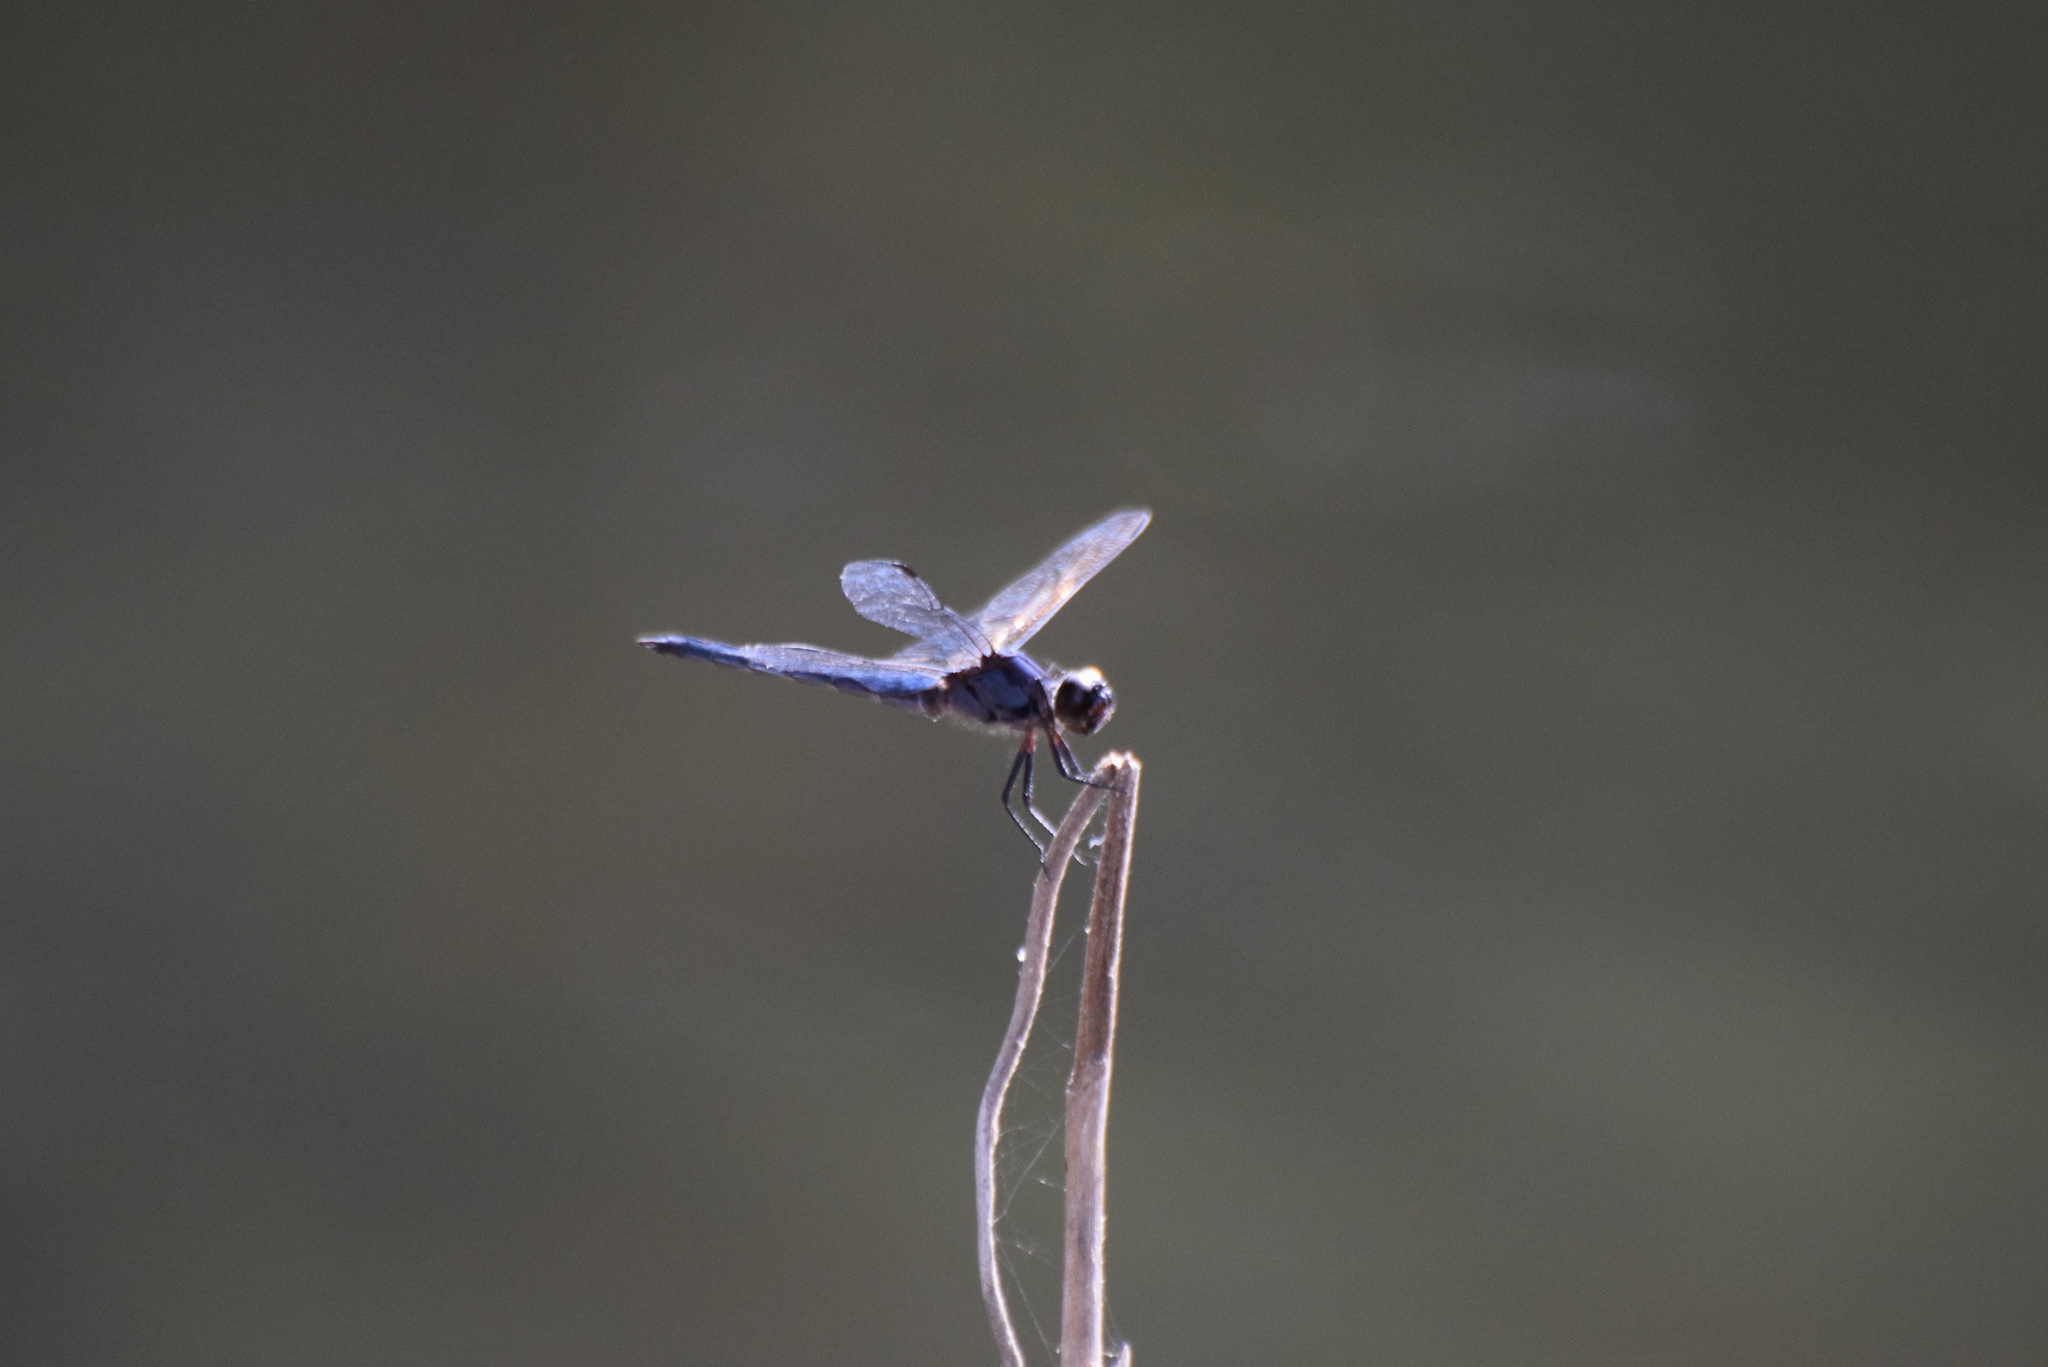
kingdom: Animalia
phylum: Arthropoda
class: Insecta
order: Odonata
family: Libellulidae
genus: Libellula
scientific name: Libellula incesta
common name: Slaty skimmer
